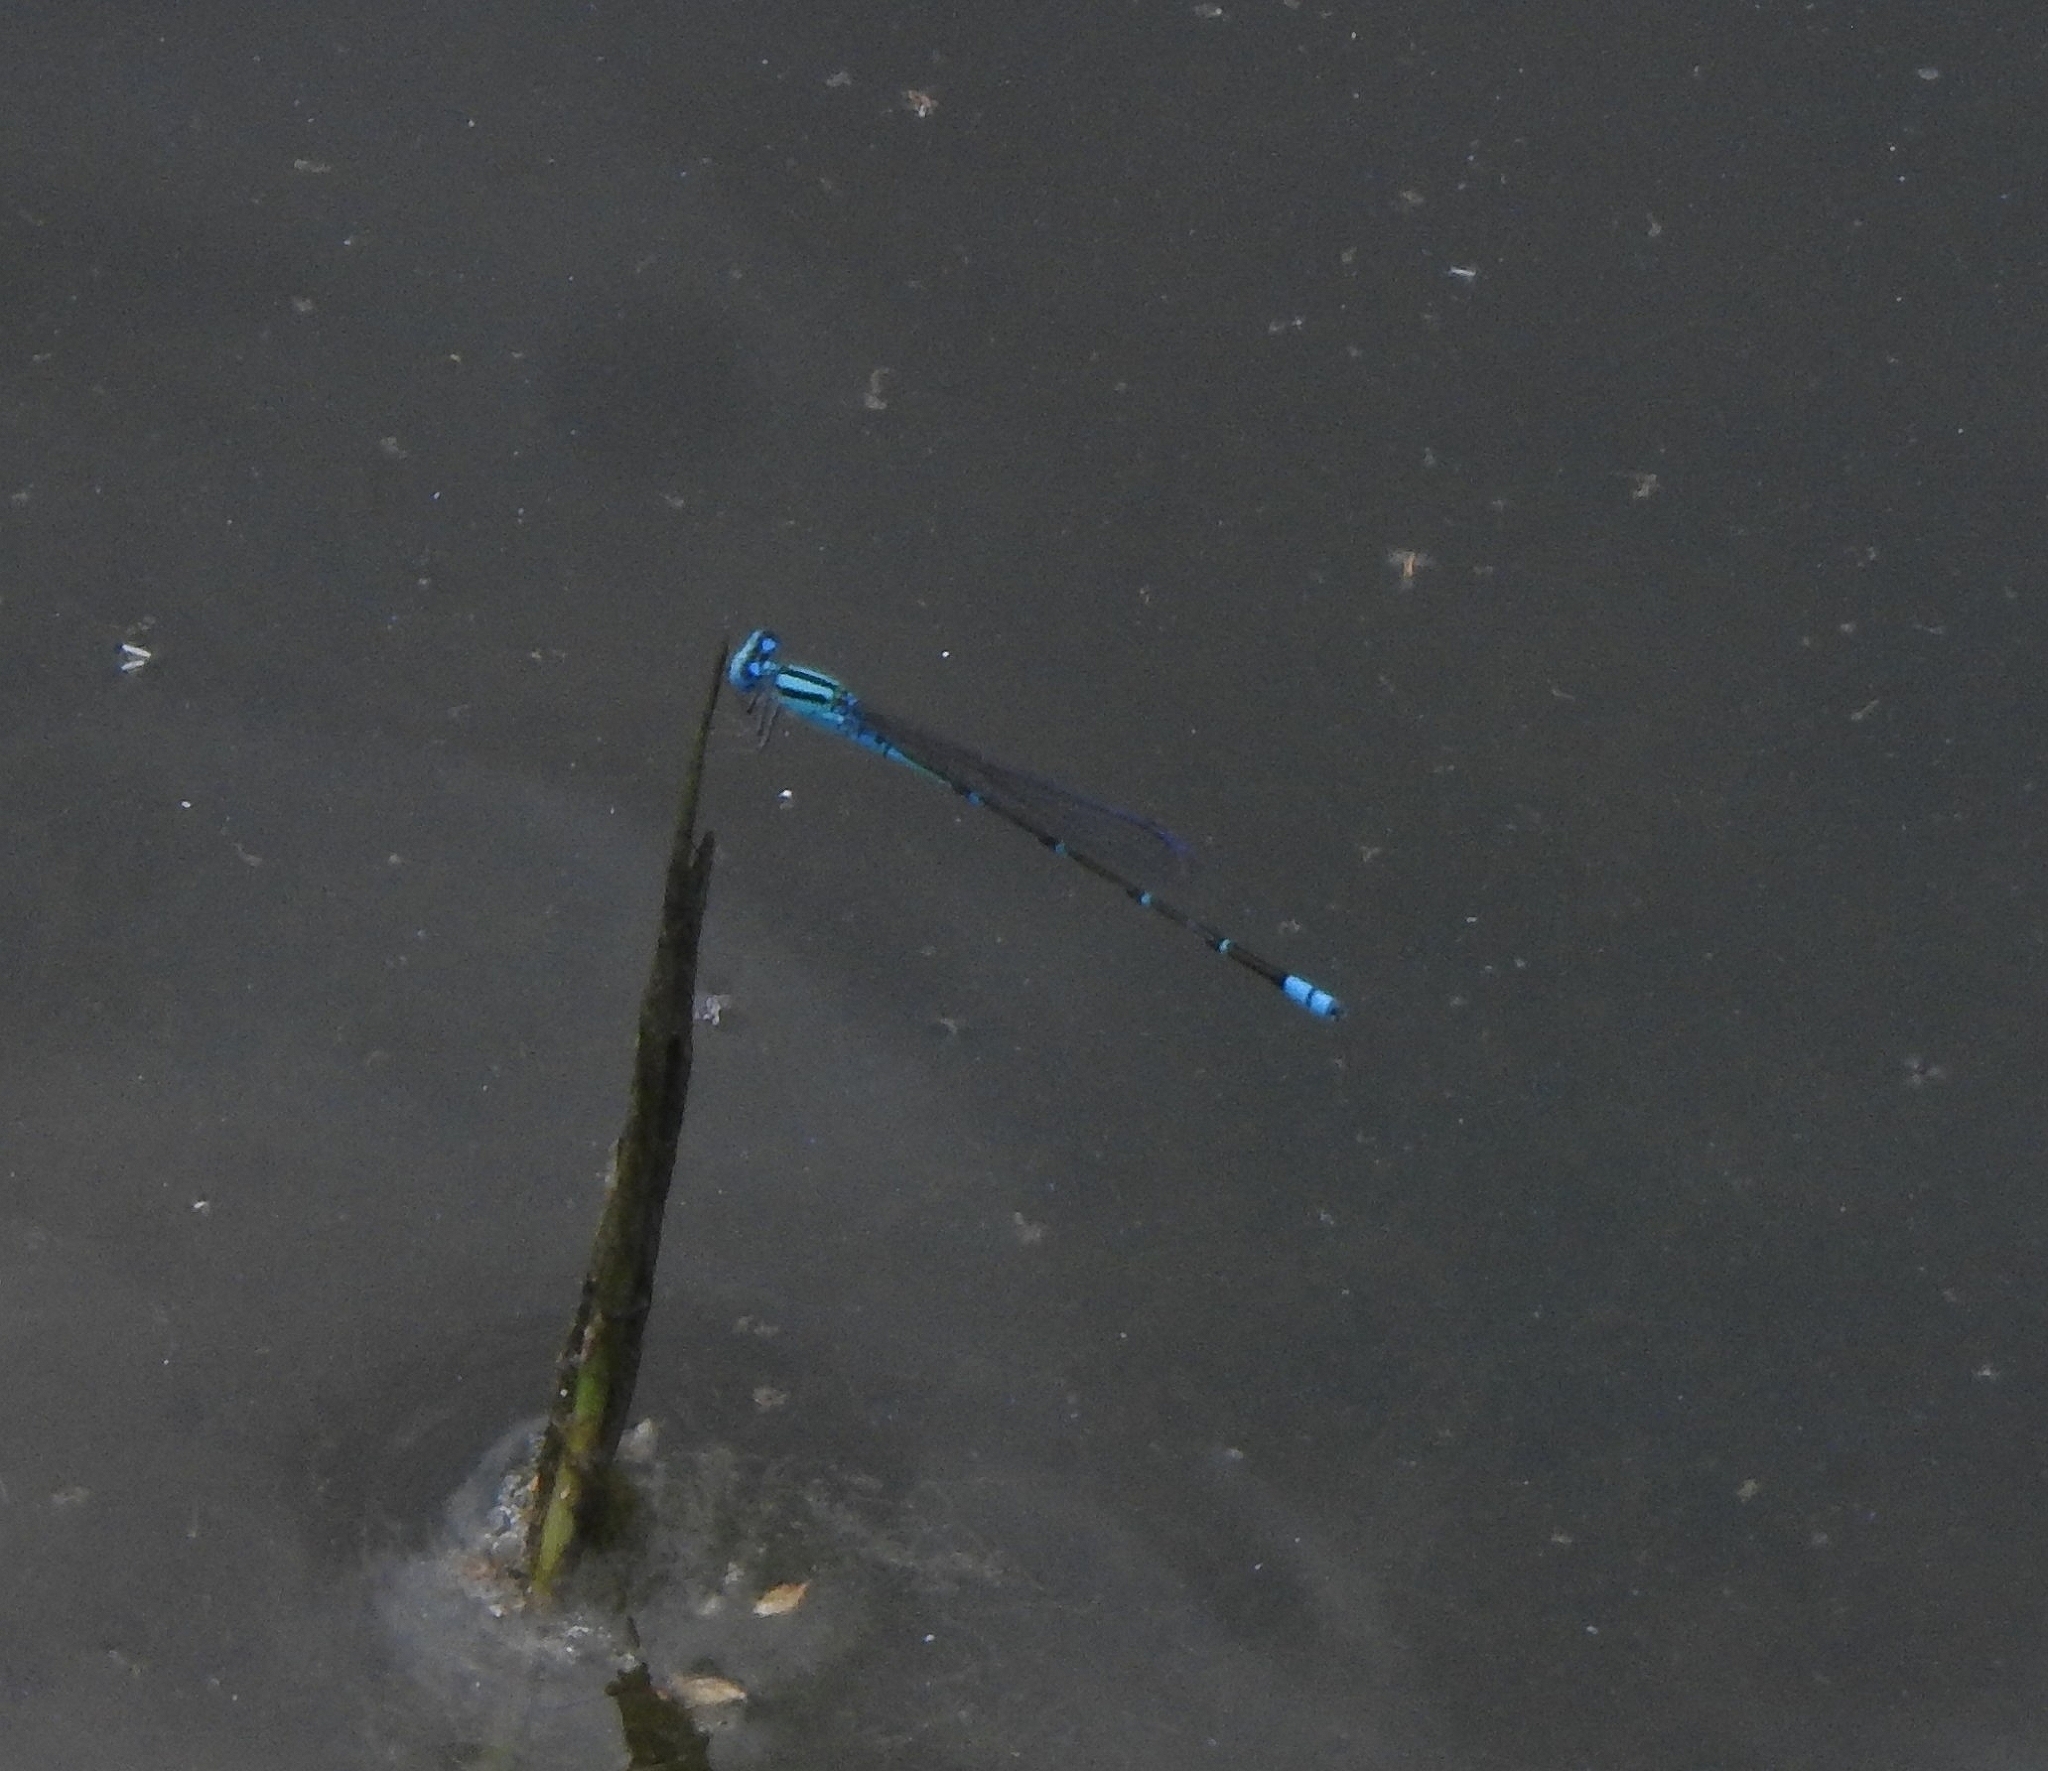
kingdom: Animalia
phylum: Arthropoda
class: Insecta
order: Odonata
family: Coenagrionidae
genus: Pseudagrion
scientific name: Pseudagrion microcephalum
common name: Blue riverdamsel
